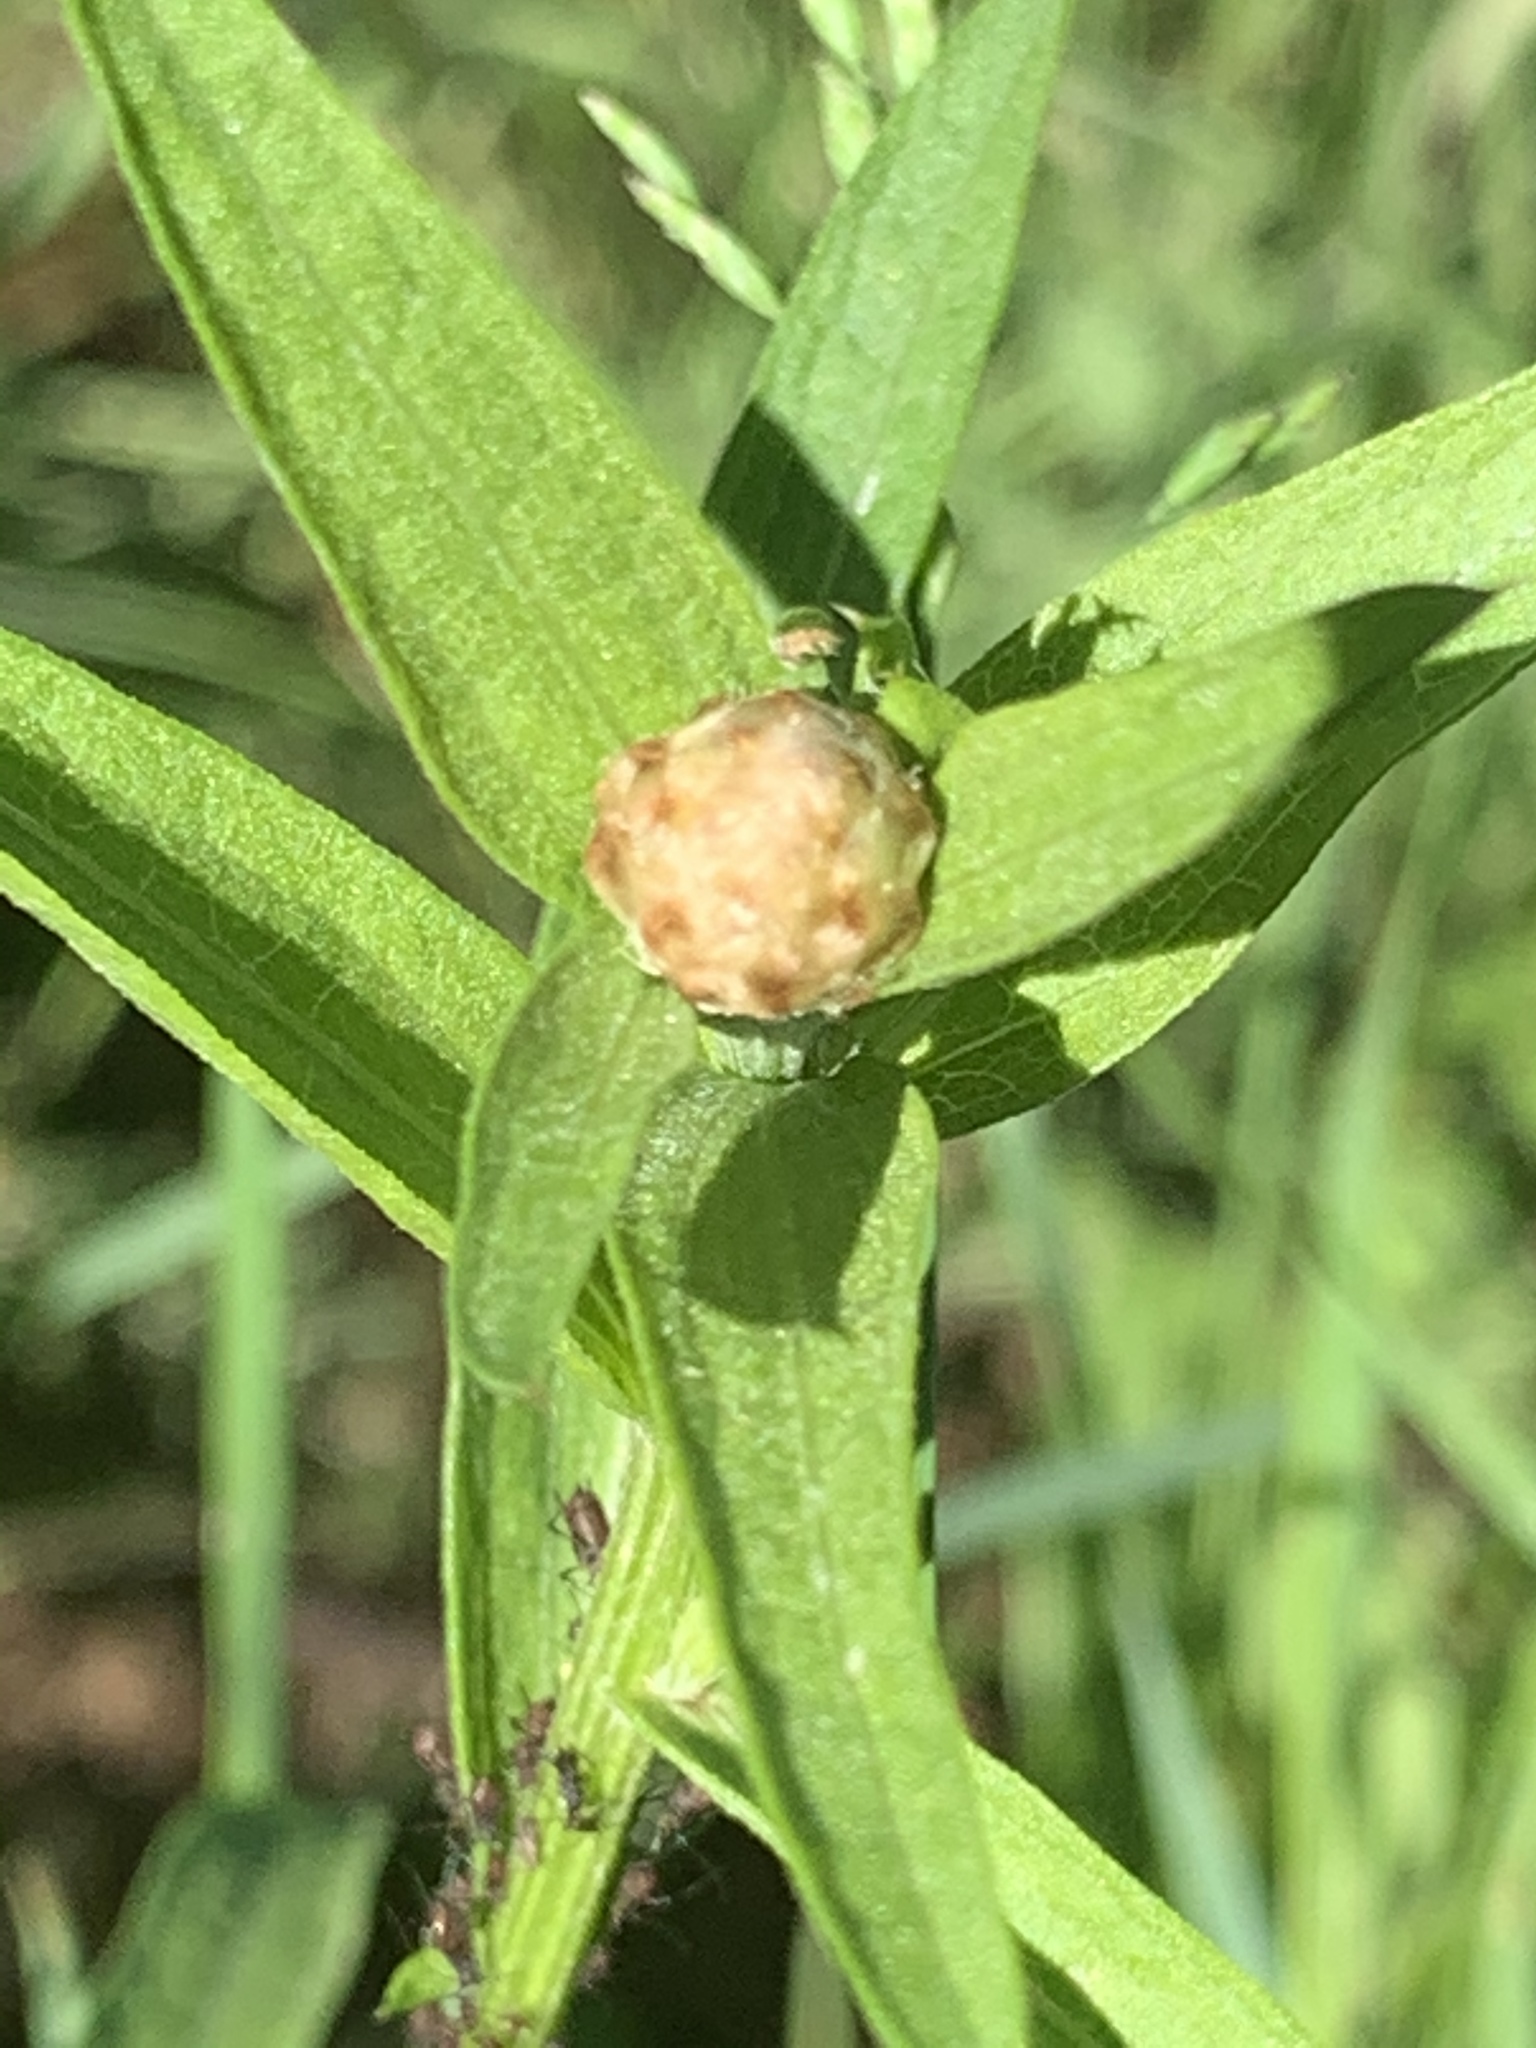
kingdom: Plantae
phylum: Tracheophyta
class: Magnoliopsida
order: Asterales
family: Asteraceae
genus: Centaurea
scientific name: Centaurea jacea
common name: Brown knapweed
